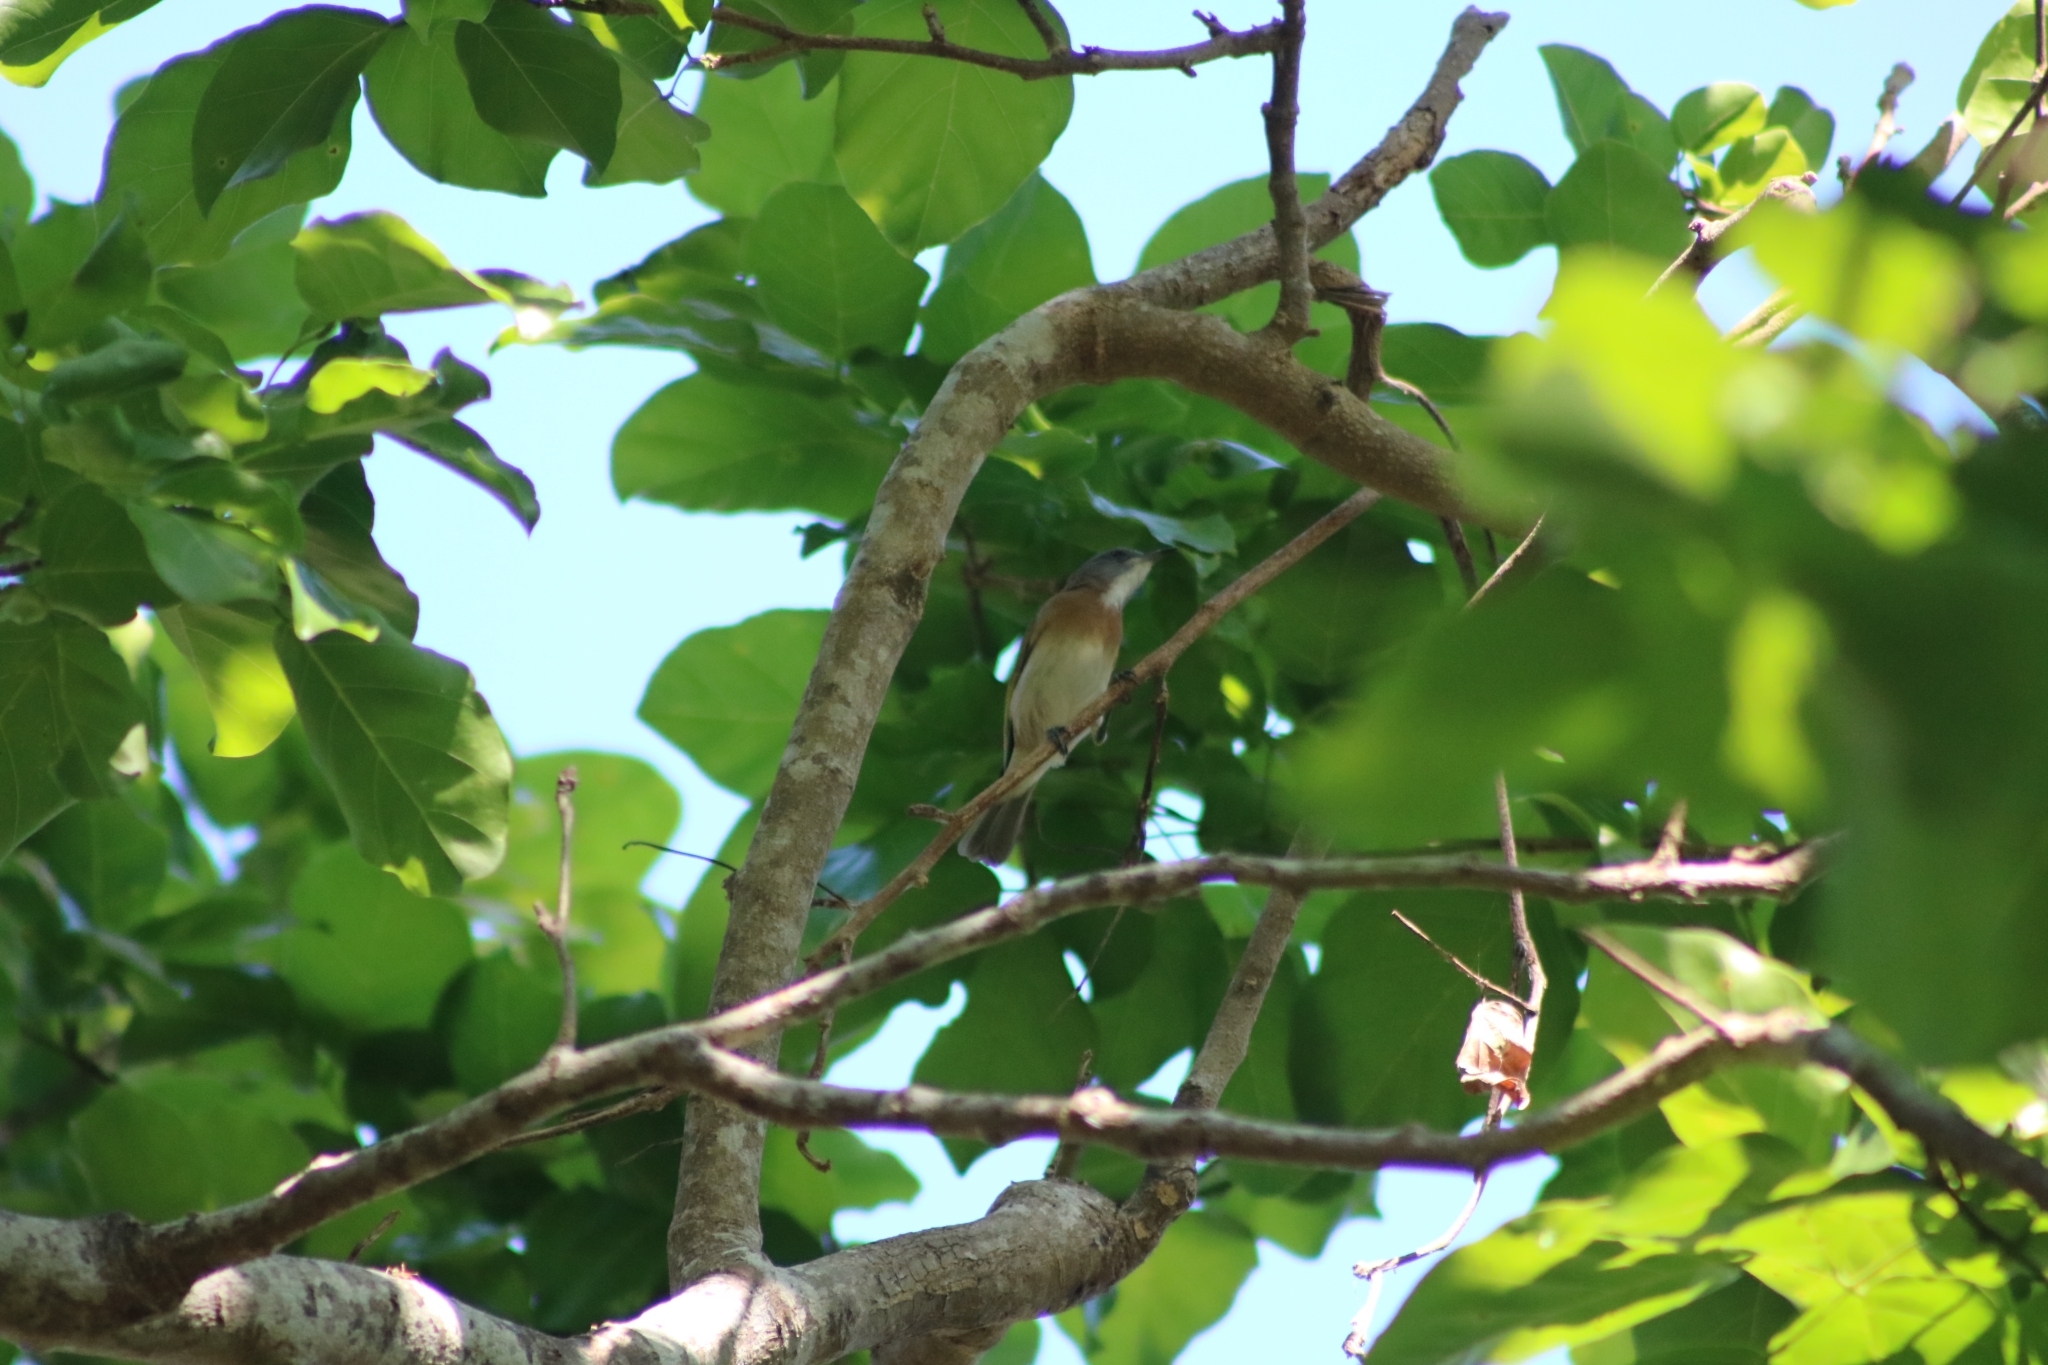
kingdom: Animalia
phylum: Chordata
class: Aves
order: Passeriformes
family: Meliphagidae
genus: Conopophila
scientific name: Conopophila albogularis
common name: Rufous-banded honeyeater
